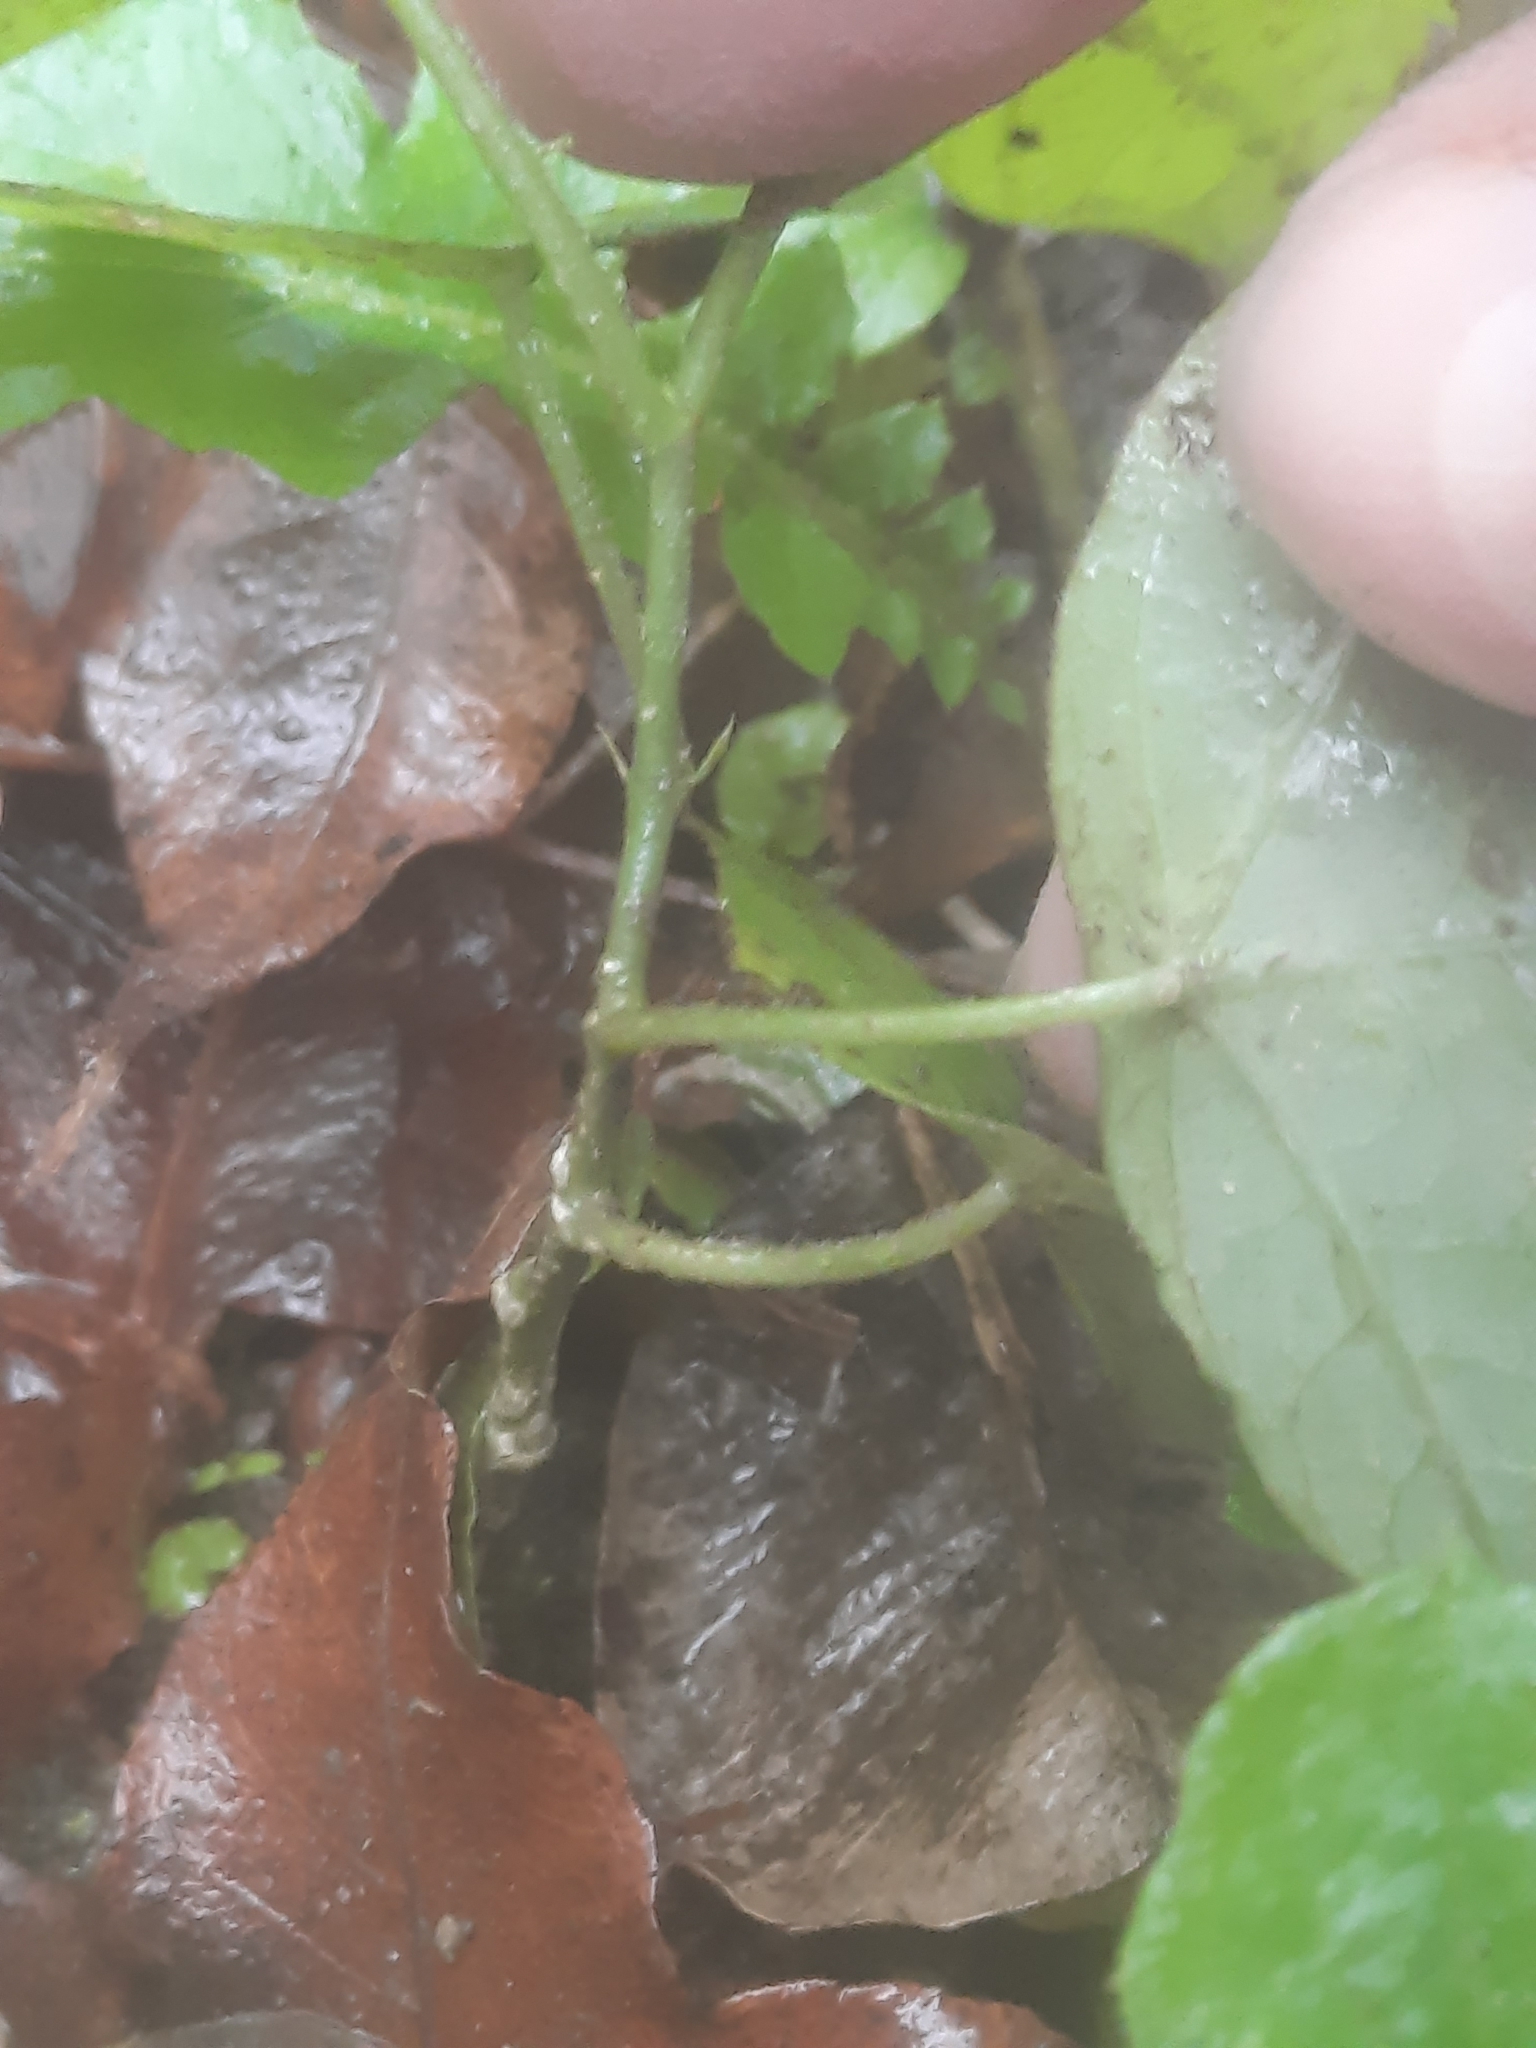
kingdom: Plantae
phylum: Tracheophyta
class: Magnoliopsida
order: Malpighiales
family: Passifloraceae
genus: Passiflora
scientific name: Passiflora suberosa
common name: Wild passionfruit
